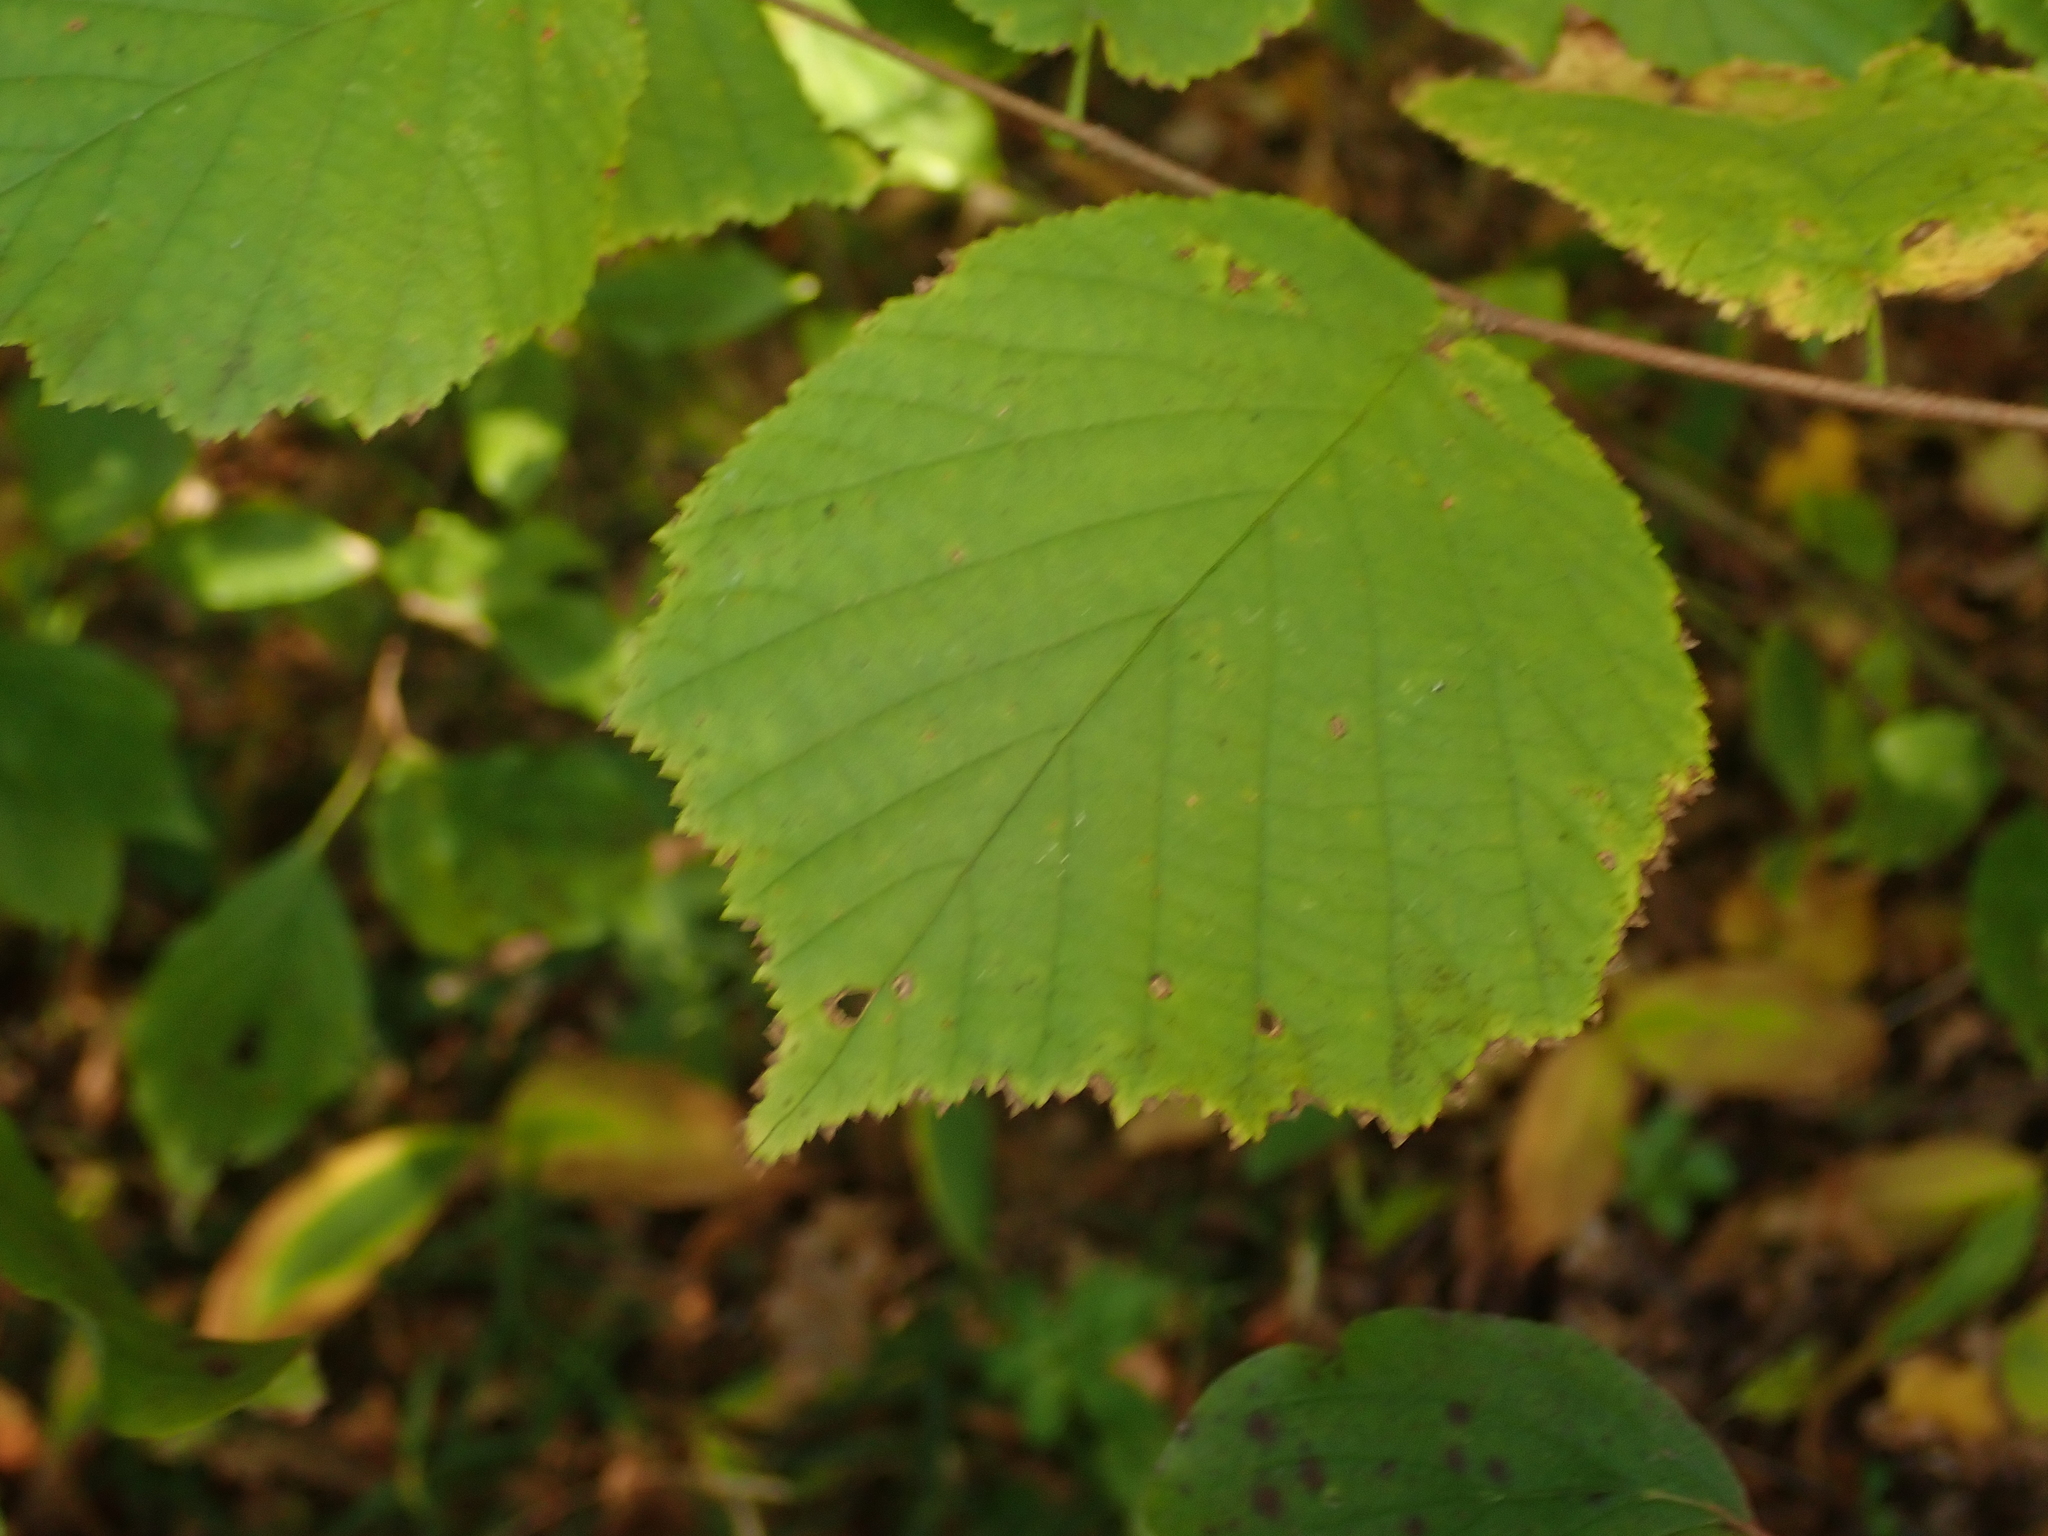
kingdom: Plantae
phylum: Tracheophyta
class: Magnoliopsida
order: Fagales
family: Betulaceae
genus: Corylus
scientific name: Corylus avellana
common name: European hazel
